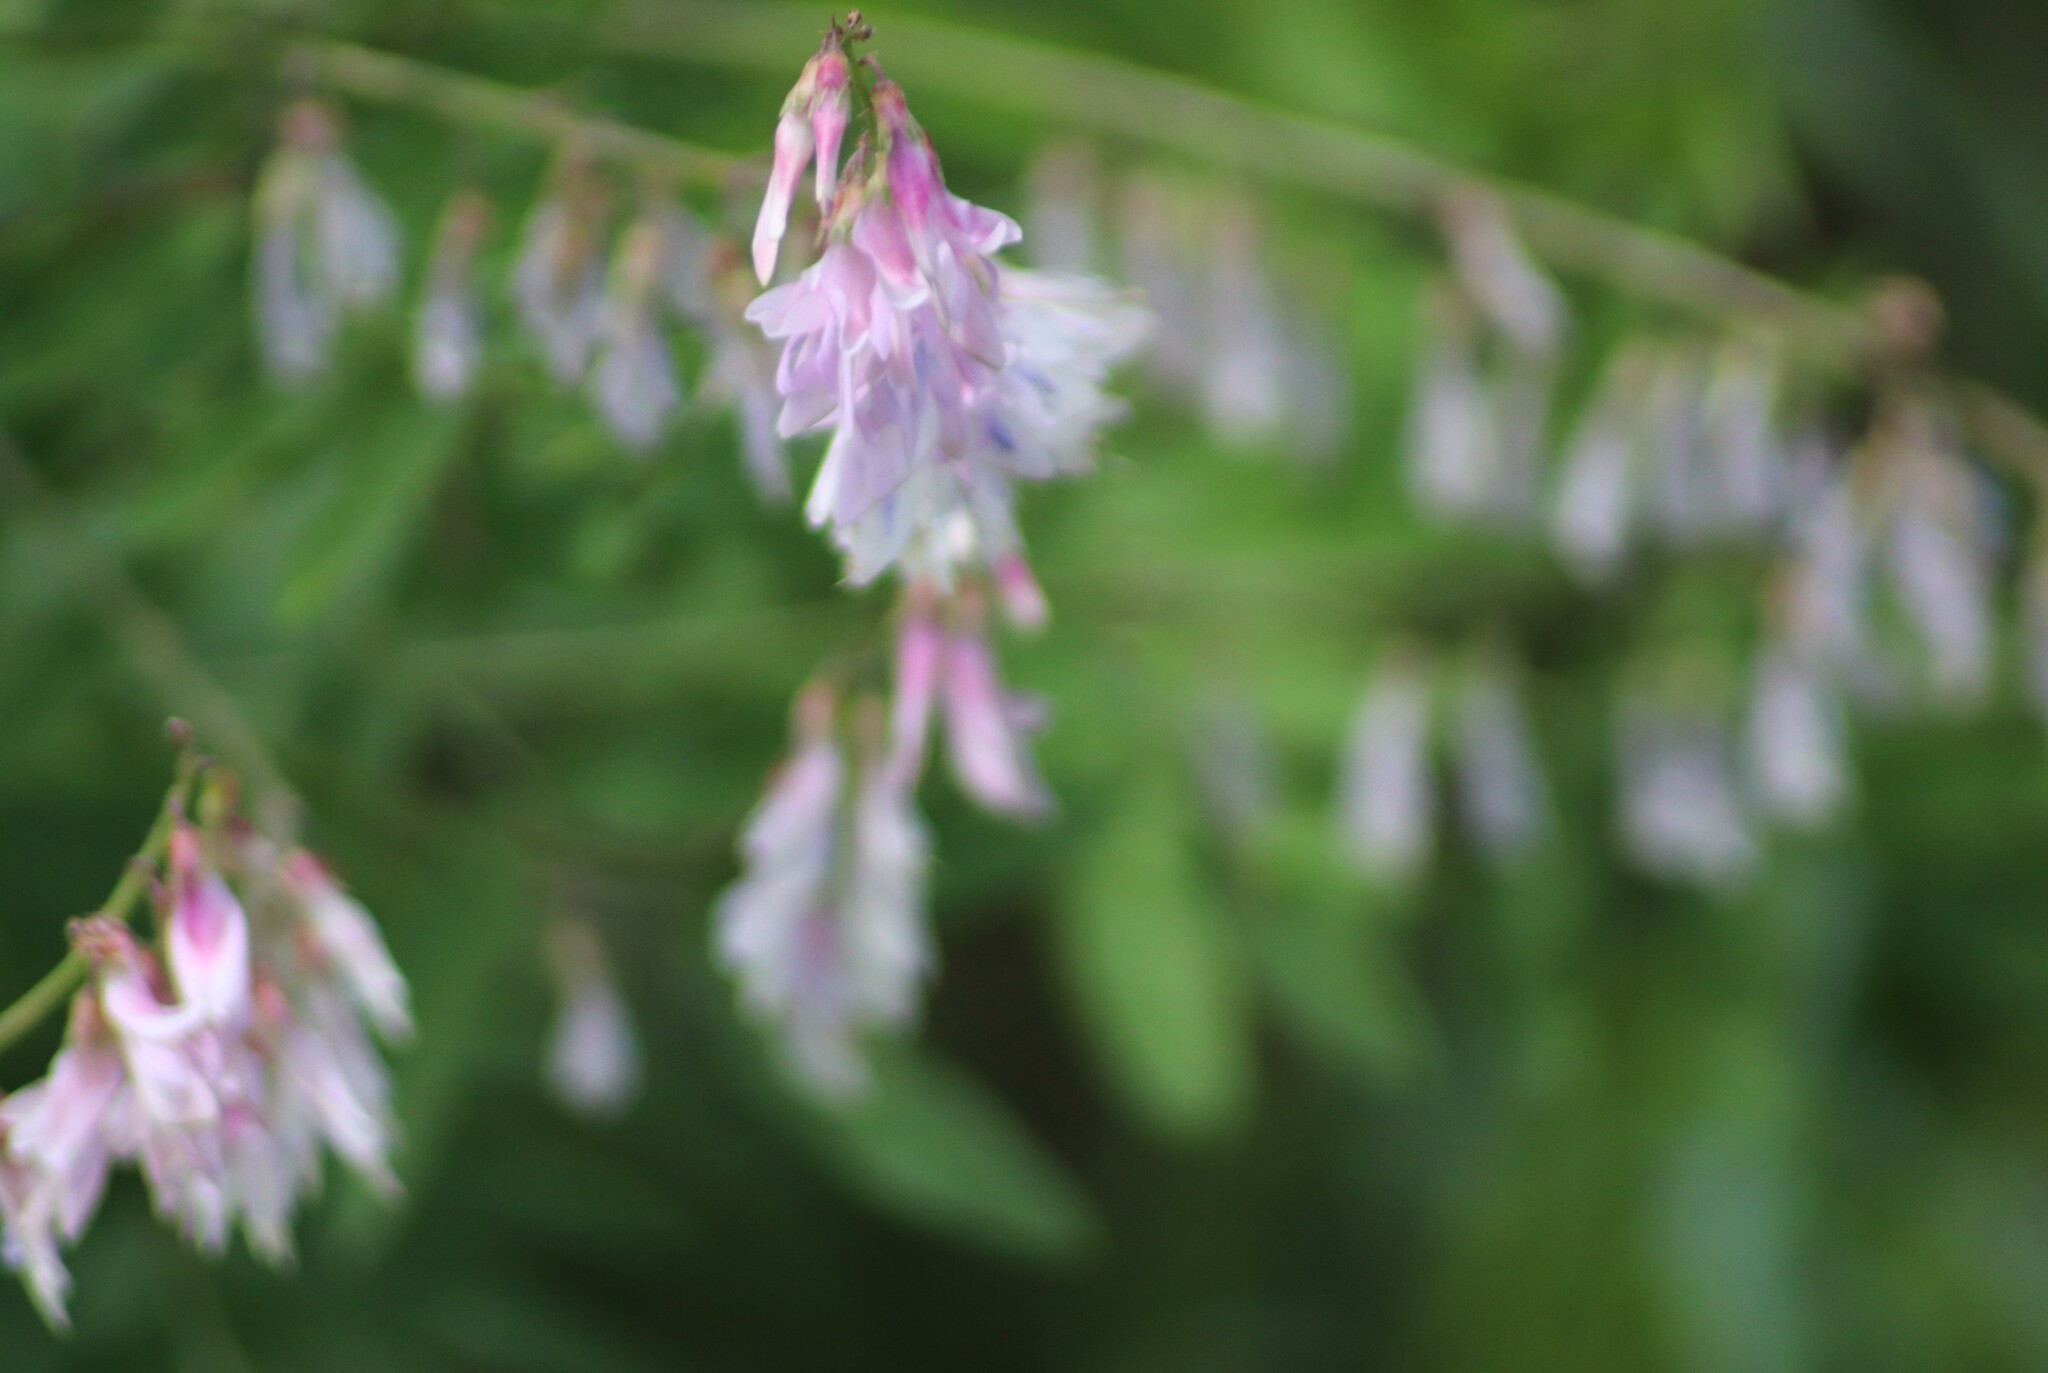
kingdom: Plantae
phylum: Tracheophyta
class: Magnoliopsida
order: Fabales
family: Fabaceae
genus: Hedysarum
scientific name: Hedysarum alpinum
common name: Alpine sweet-vetch
